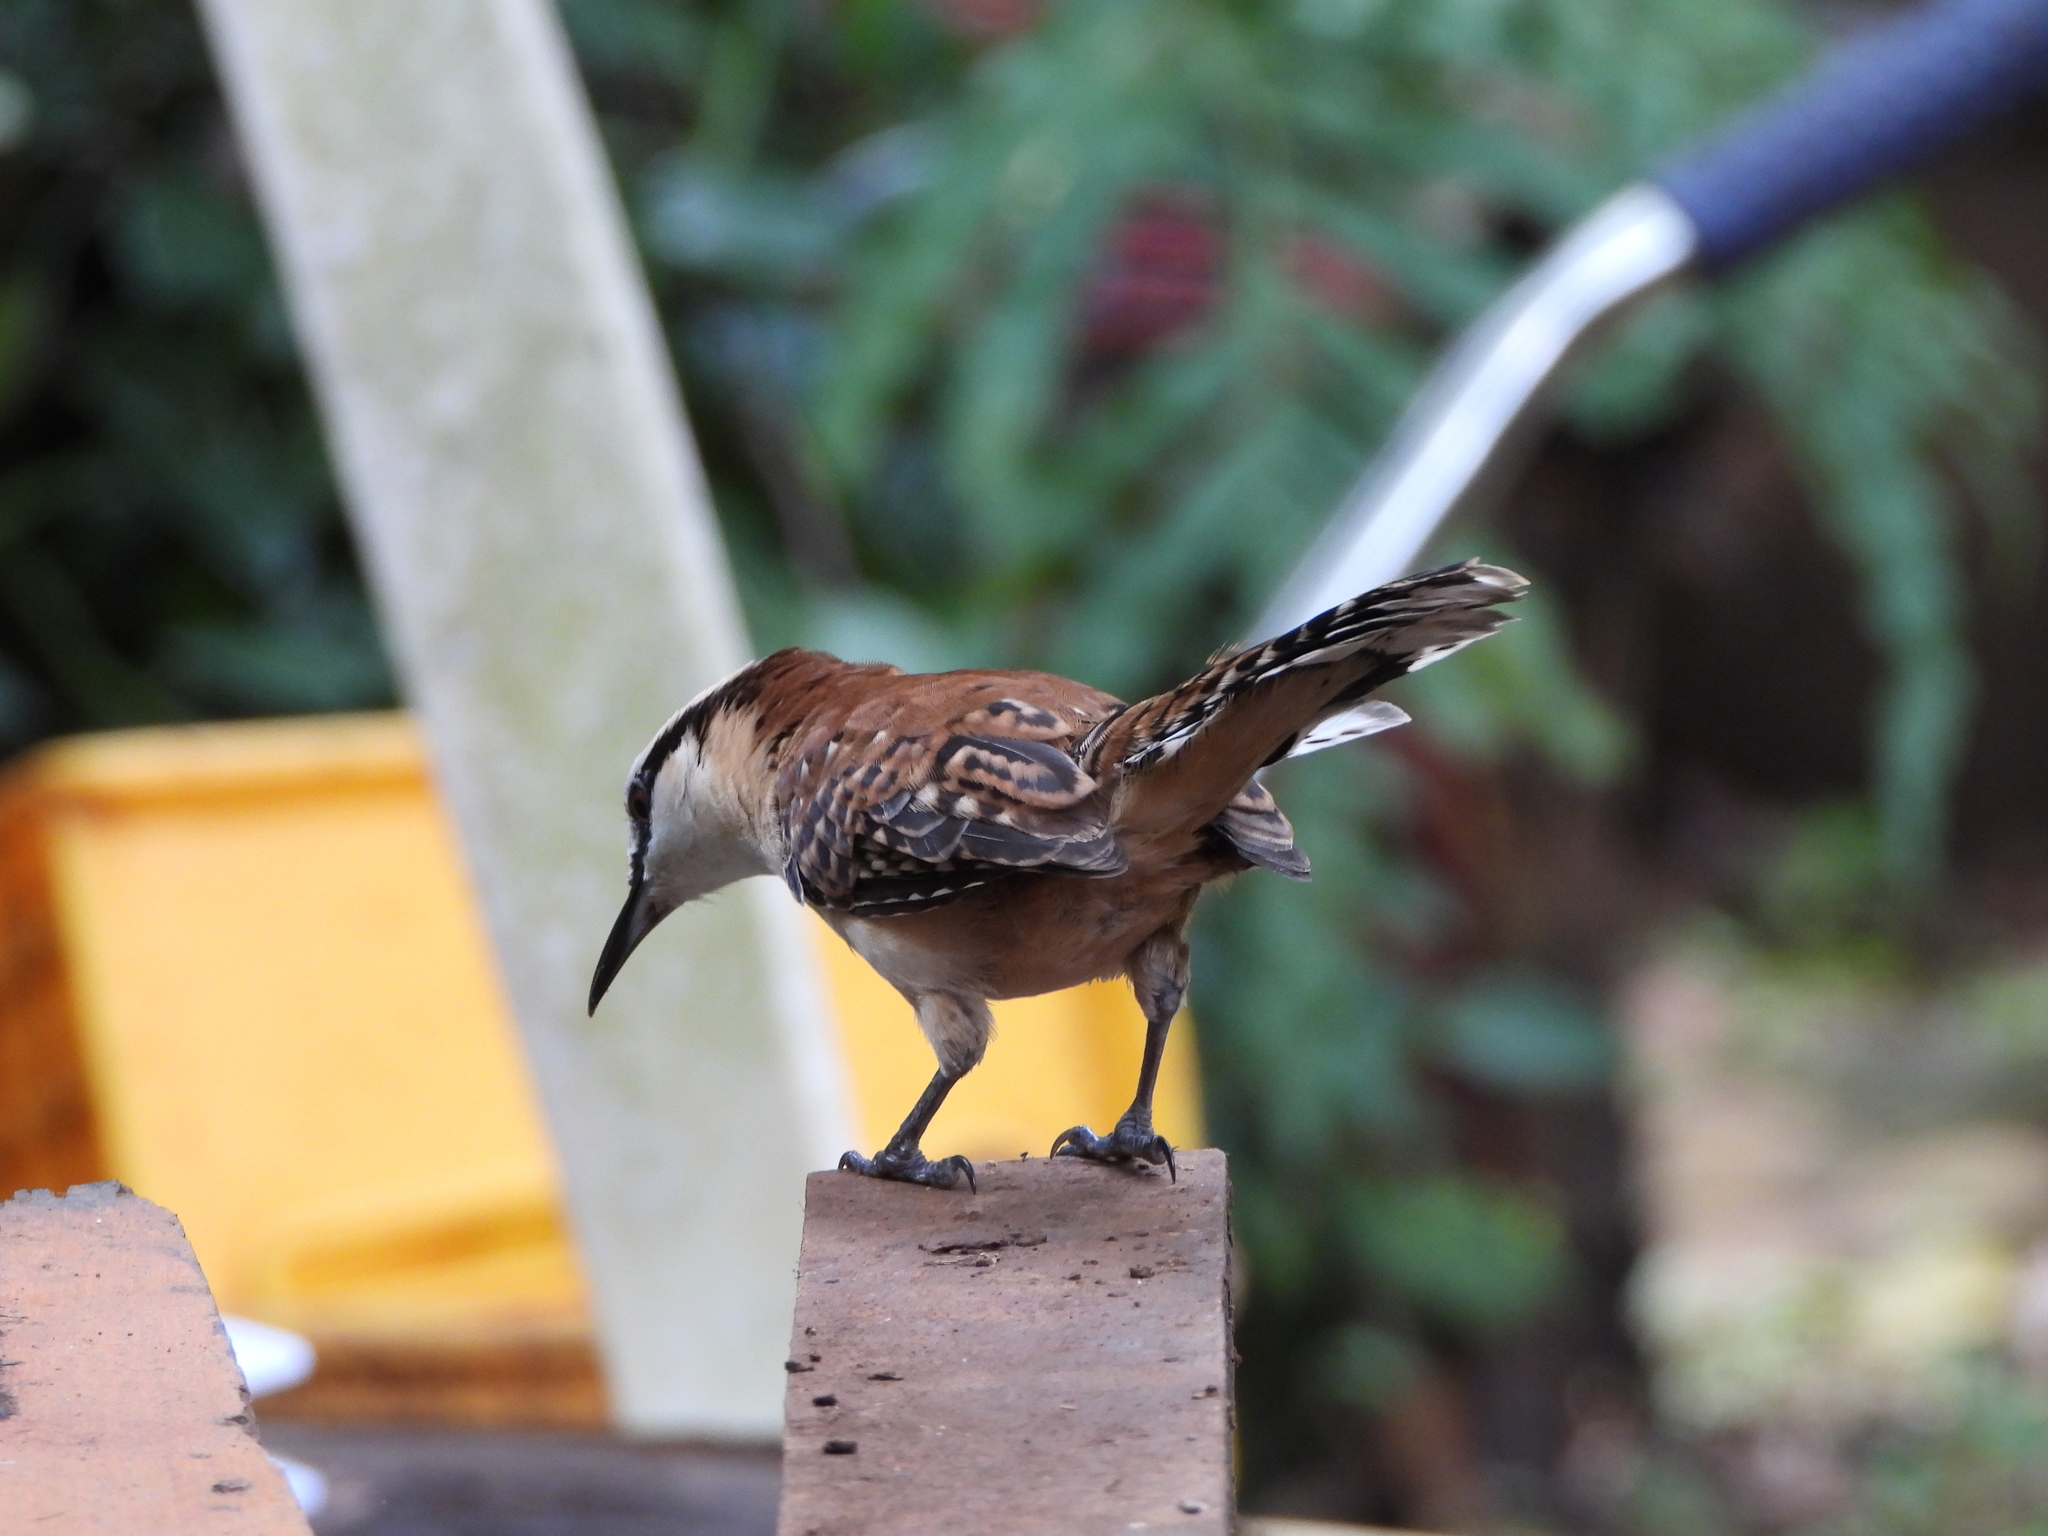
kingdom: Animalia
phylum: Chordata
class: Aves
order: Passeriformes
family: Troglodytidae
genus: Campylorhynchus
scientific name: Campylorhynchus rufinucha
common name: Rufous-naped wren
